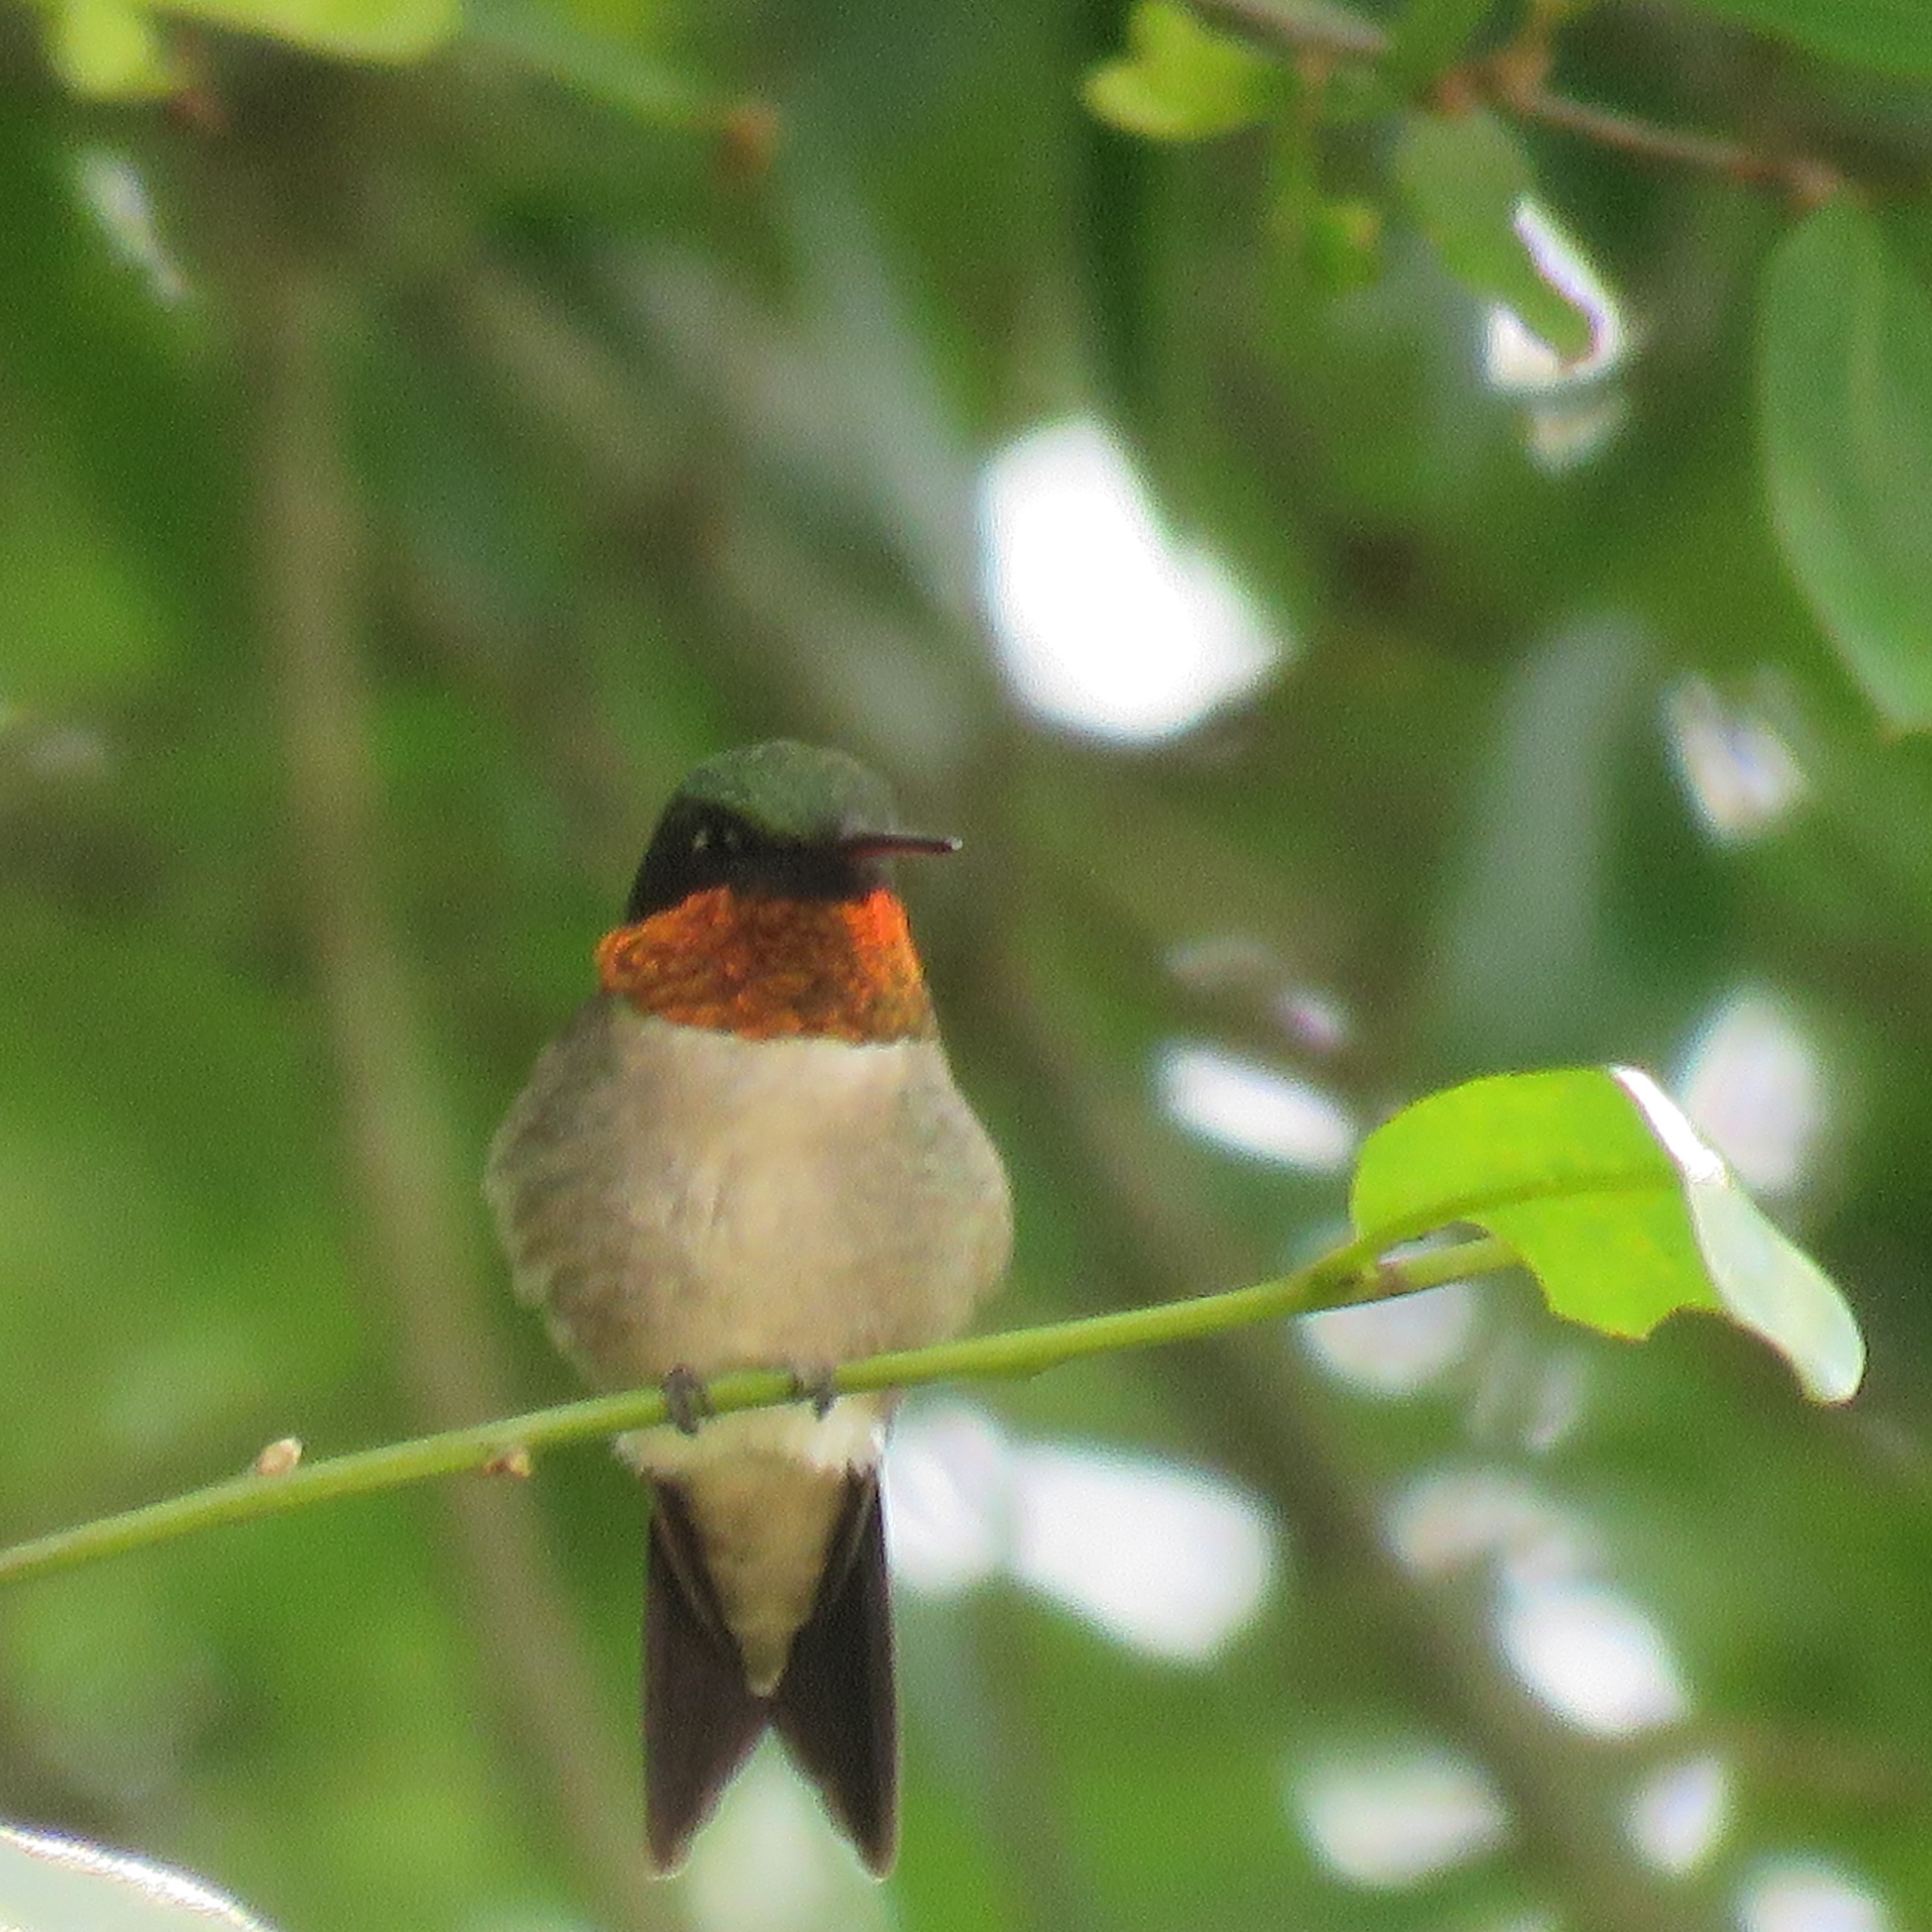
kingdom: Animalia
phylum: Chordata
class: Aves
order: Apodiformes
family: Trochilidae
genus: Archilochus
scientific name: Archilochus colubris
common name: Ruby-throated hummingbird
